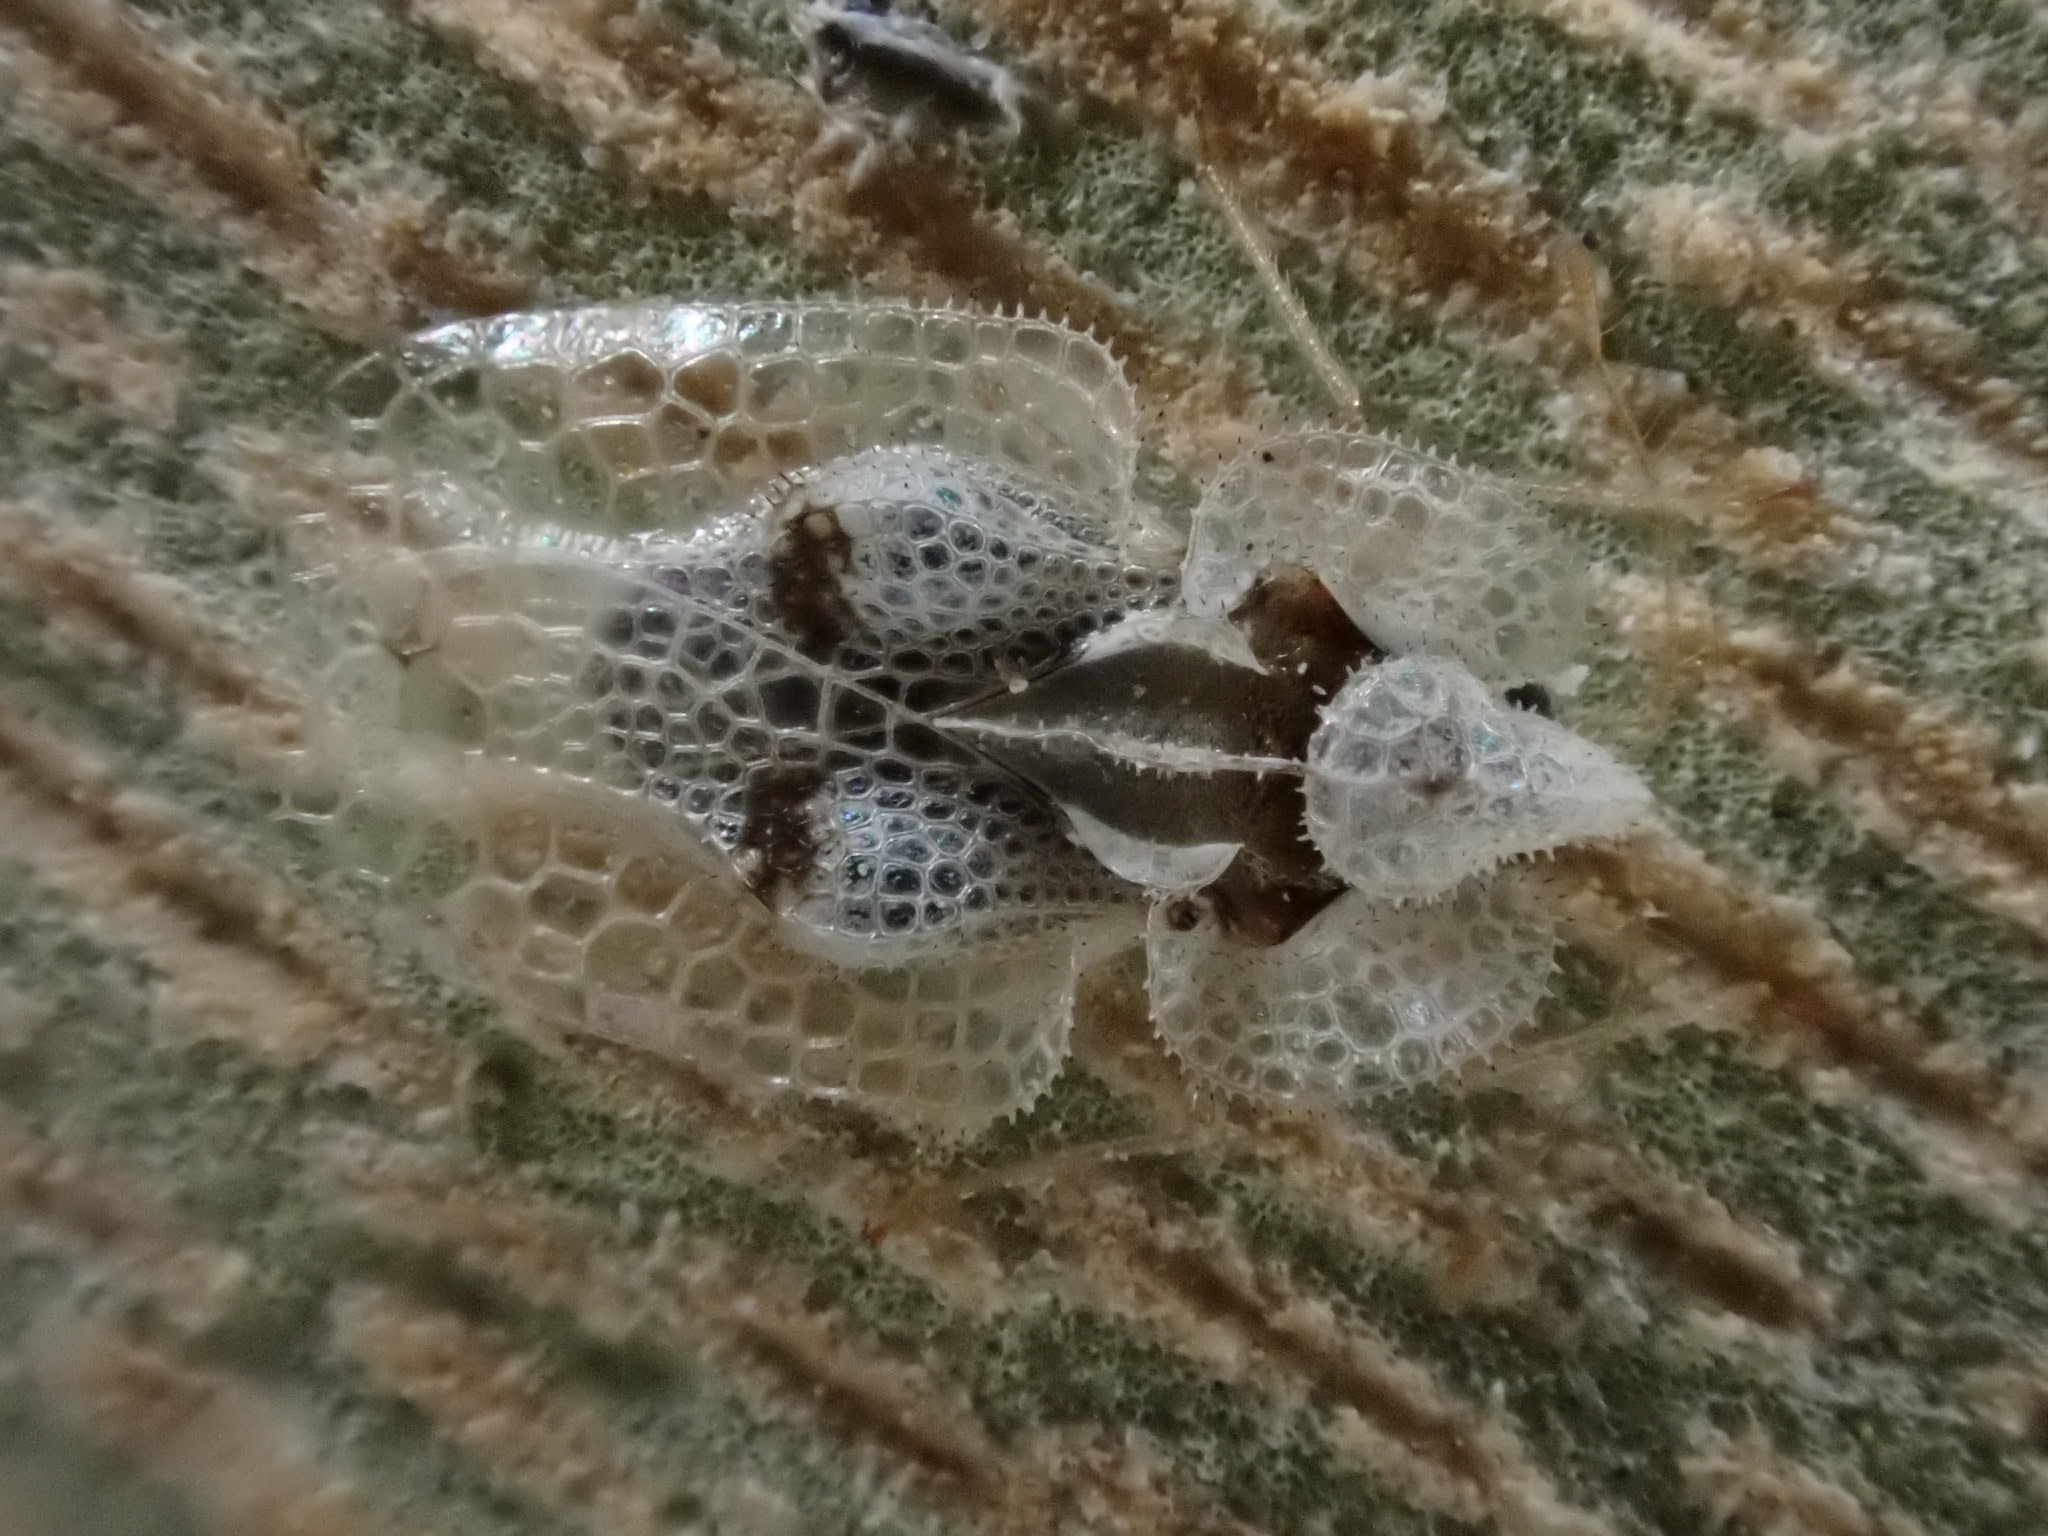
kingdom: Animalia
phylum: Arthropoda
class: Insecta
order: Hemiptera
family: Tingidae
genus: Corythucha
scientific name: Corythucha ciliata
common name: Sycamore lace bug
